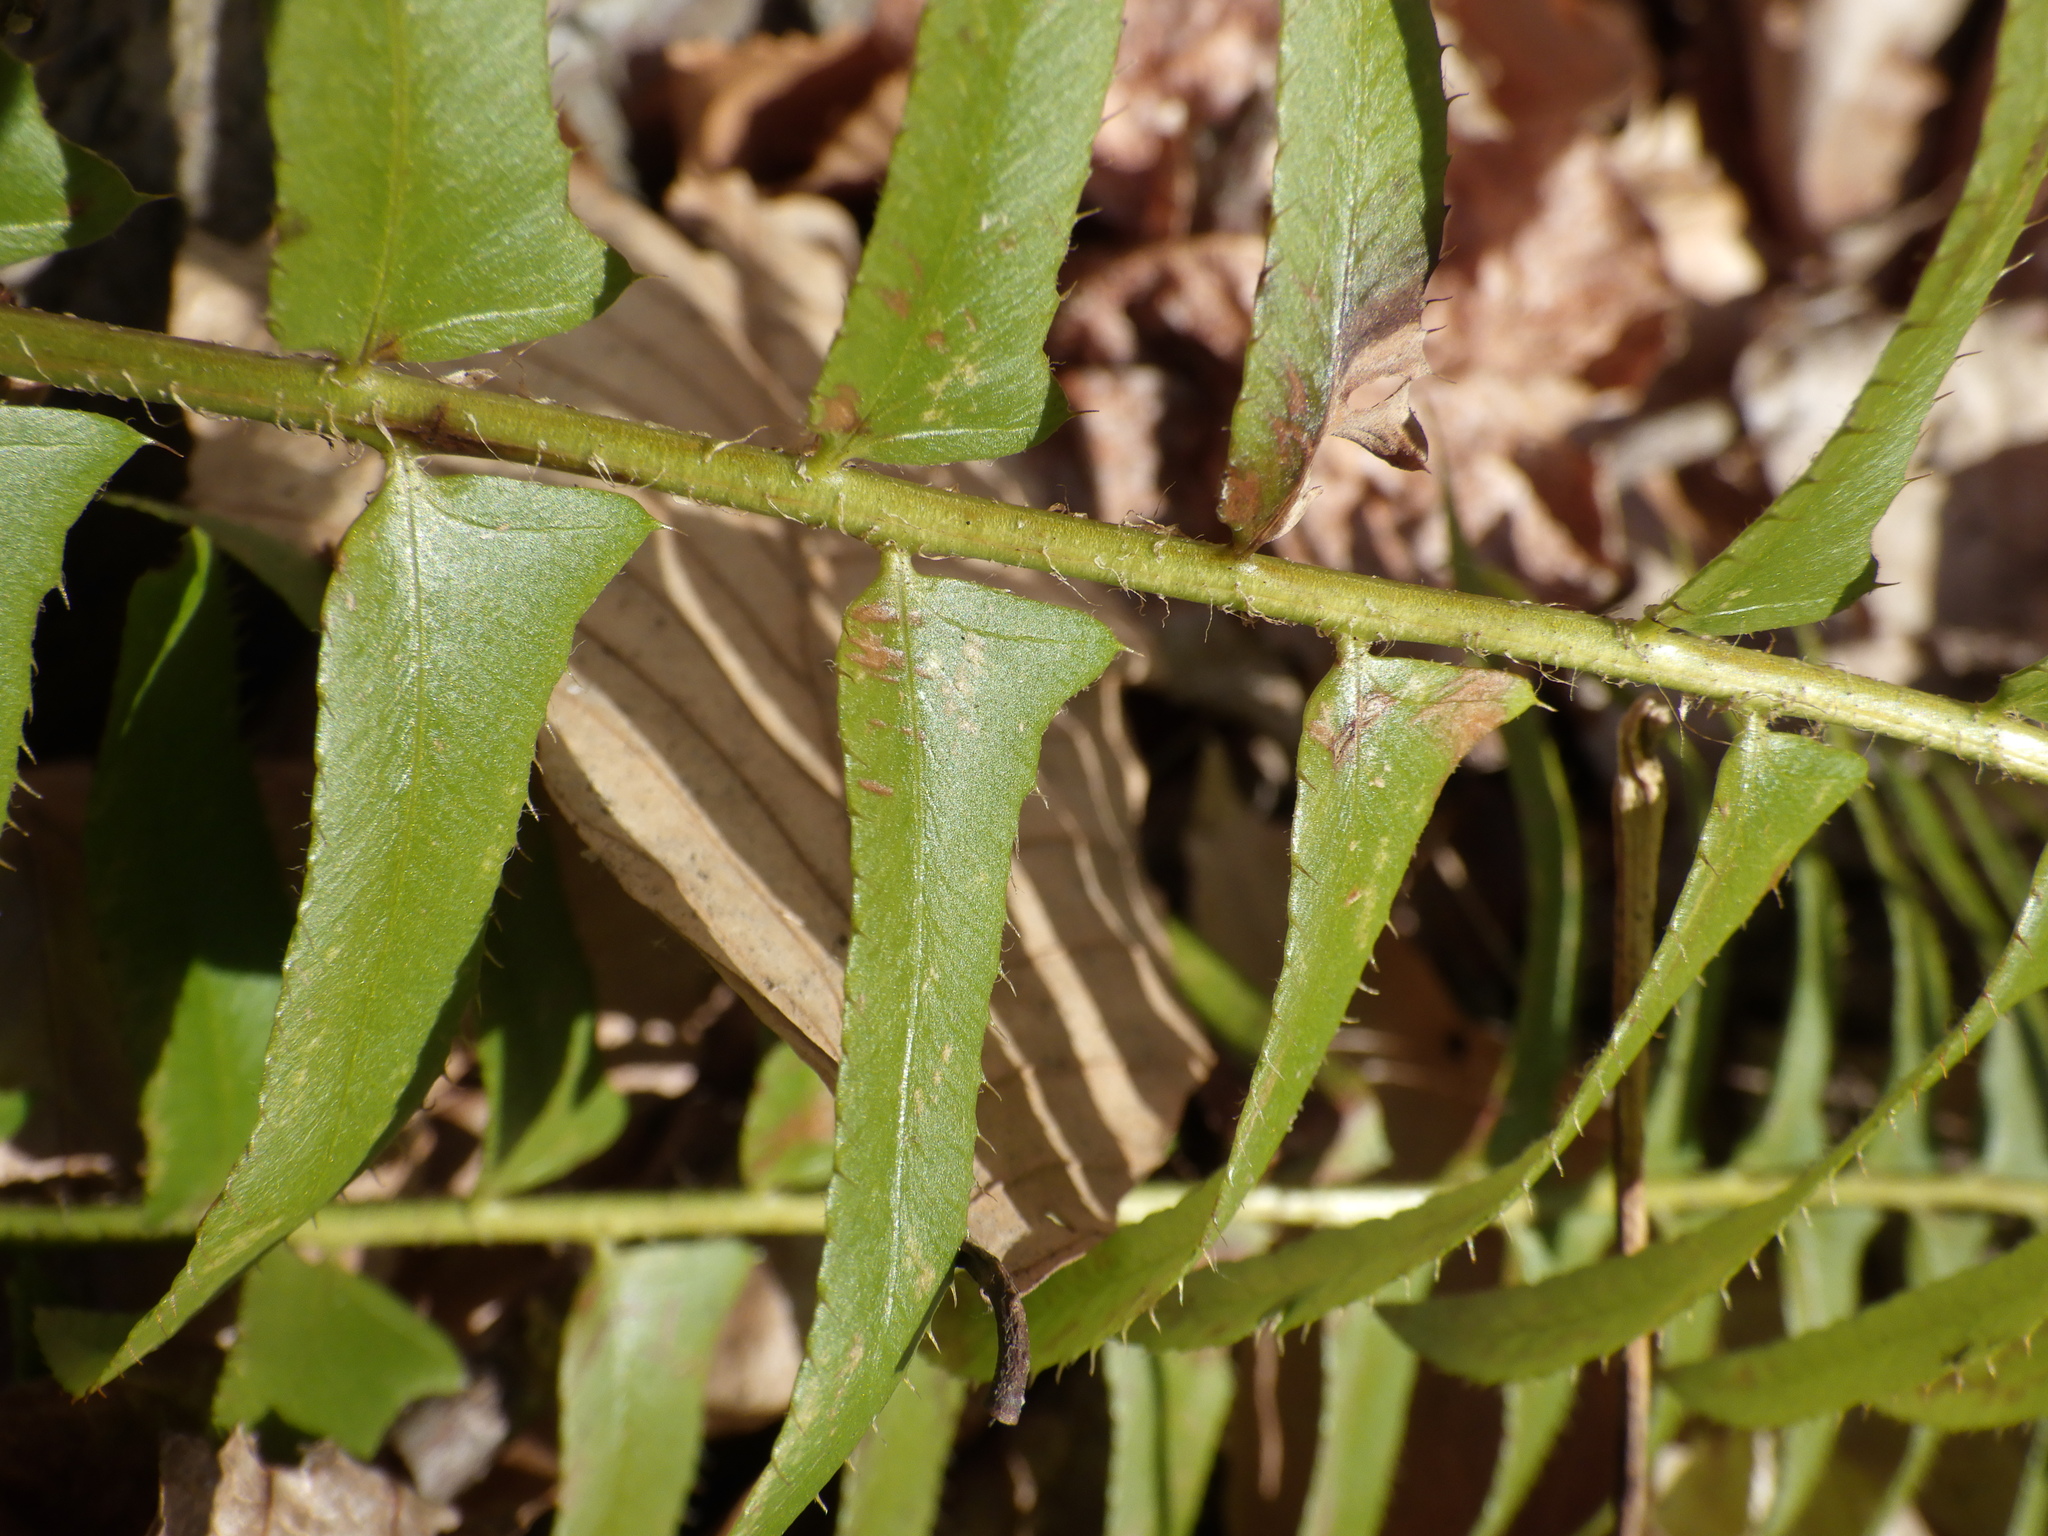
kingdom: Plantae
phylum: Tracheophyta
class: Polypodiopsida
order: Polypodiales
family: Dryopteridaceae
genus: Polystichum
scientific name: Polystichum acrostichoides
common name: Christmas fern
